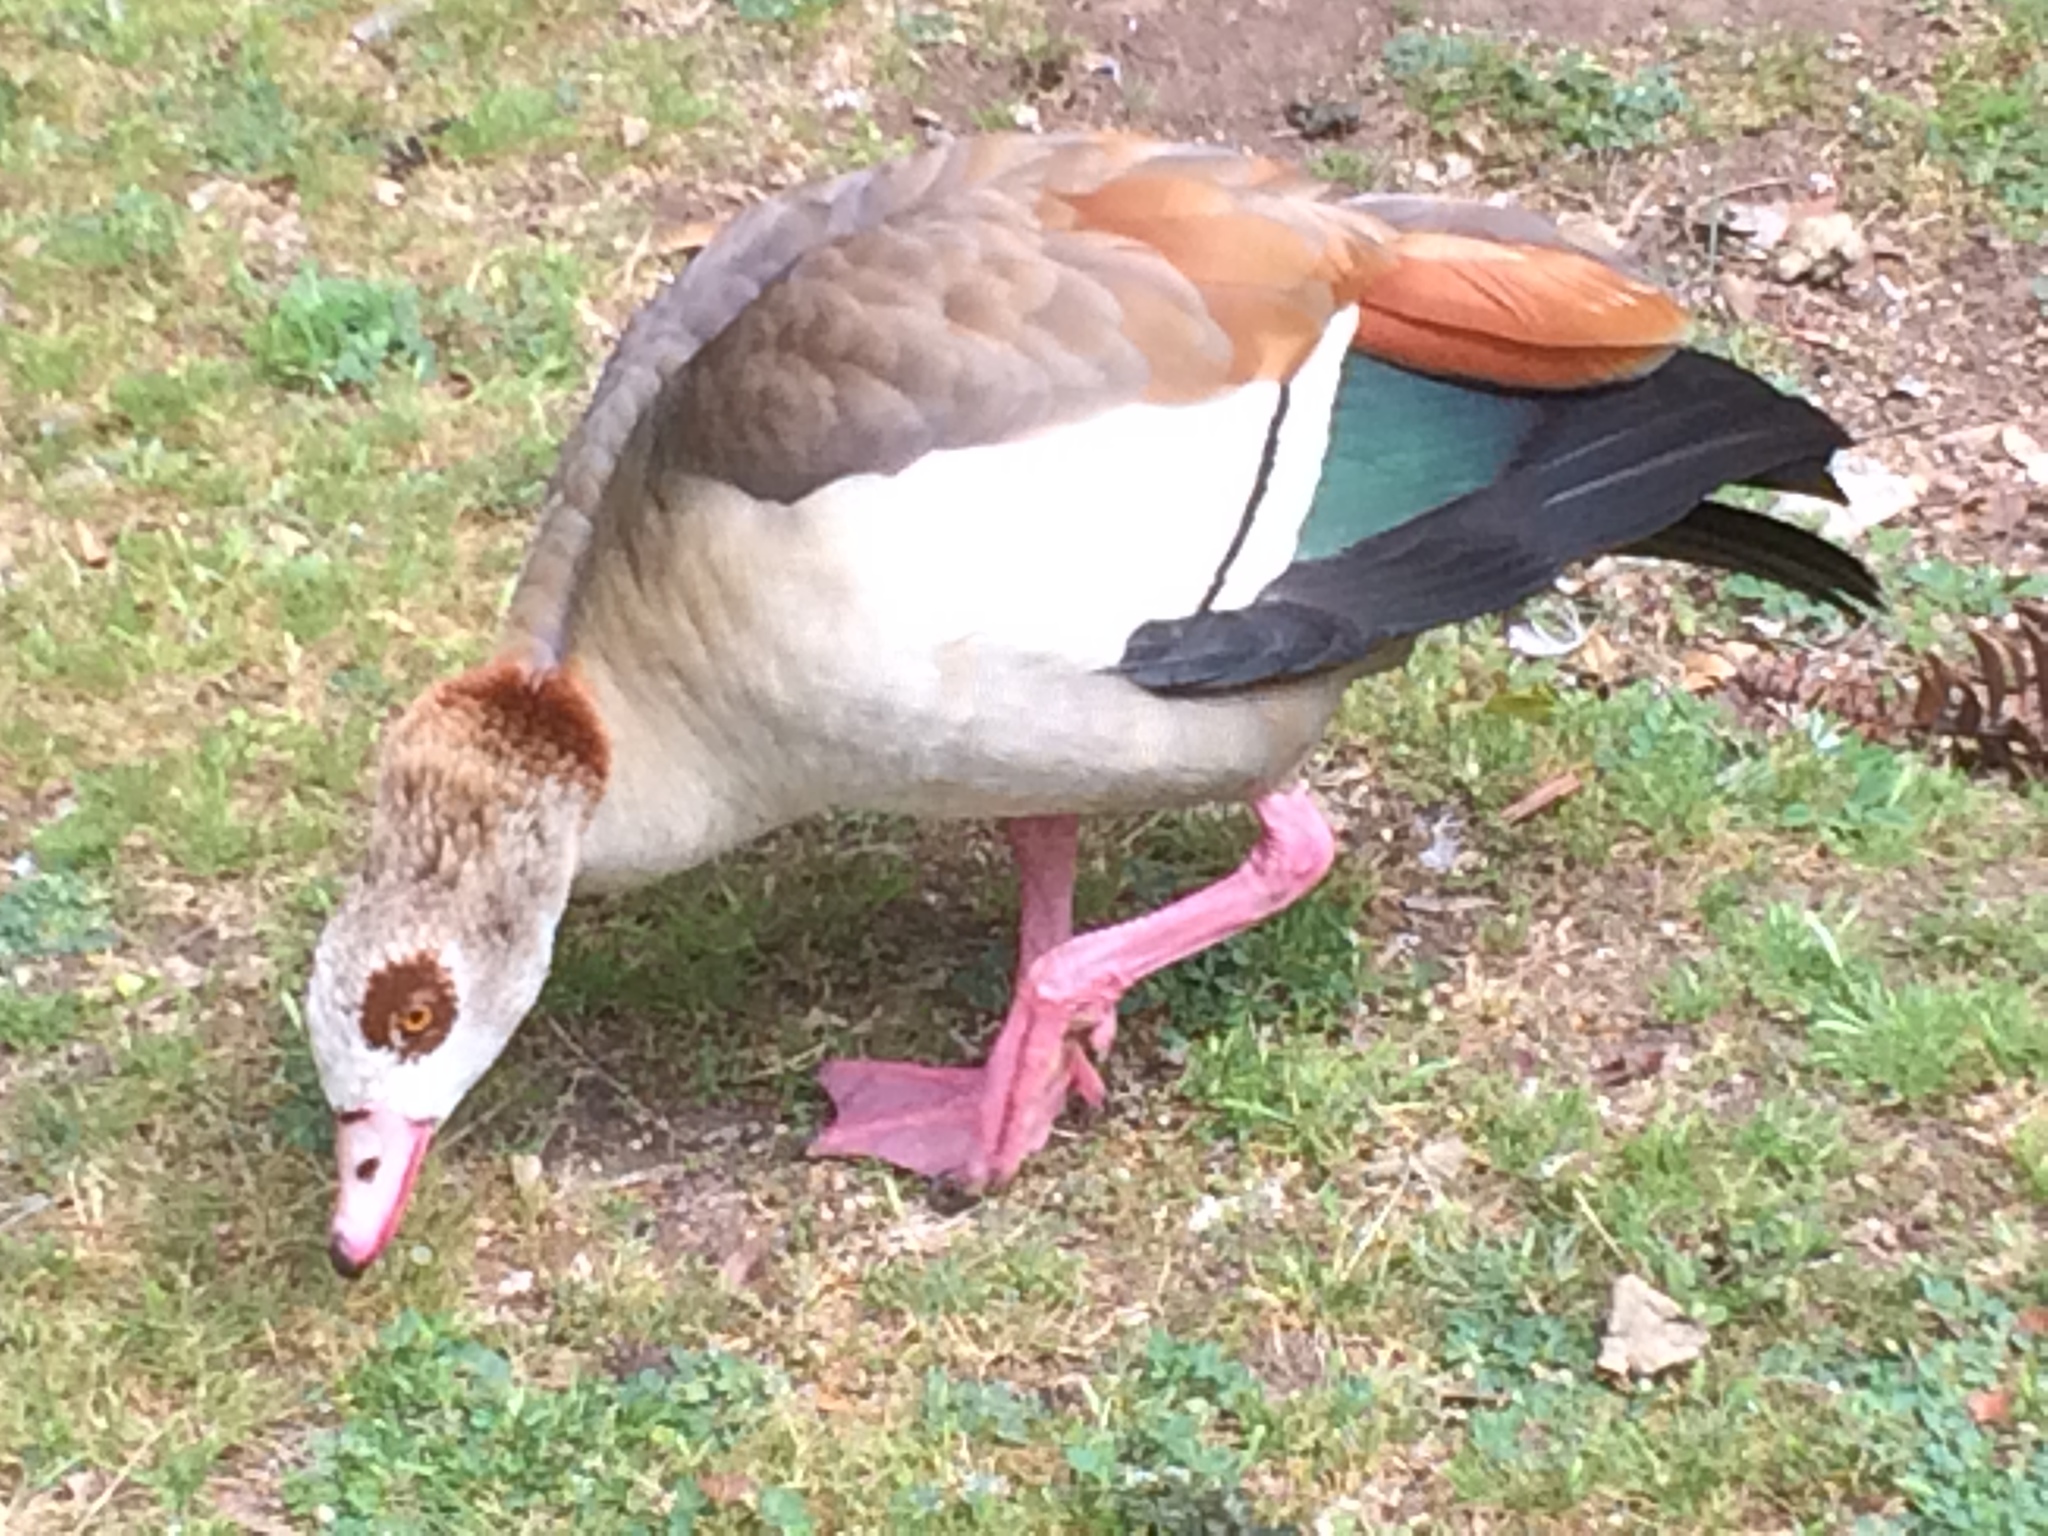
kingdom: Animalia
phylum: Chordata
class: Aves
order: Anseriformes
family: Anatidae
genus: Alopochen
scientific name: Alopochen aegyptiaca
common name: Egyptian goose
